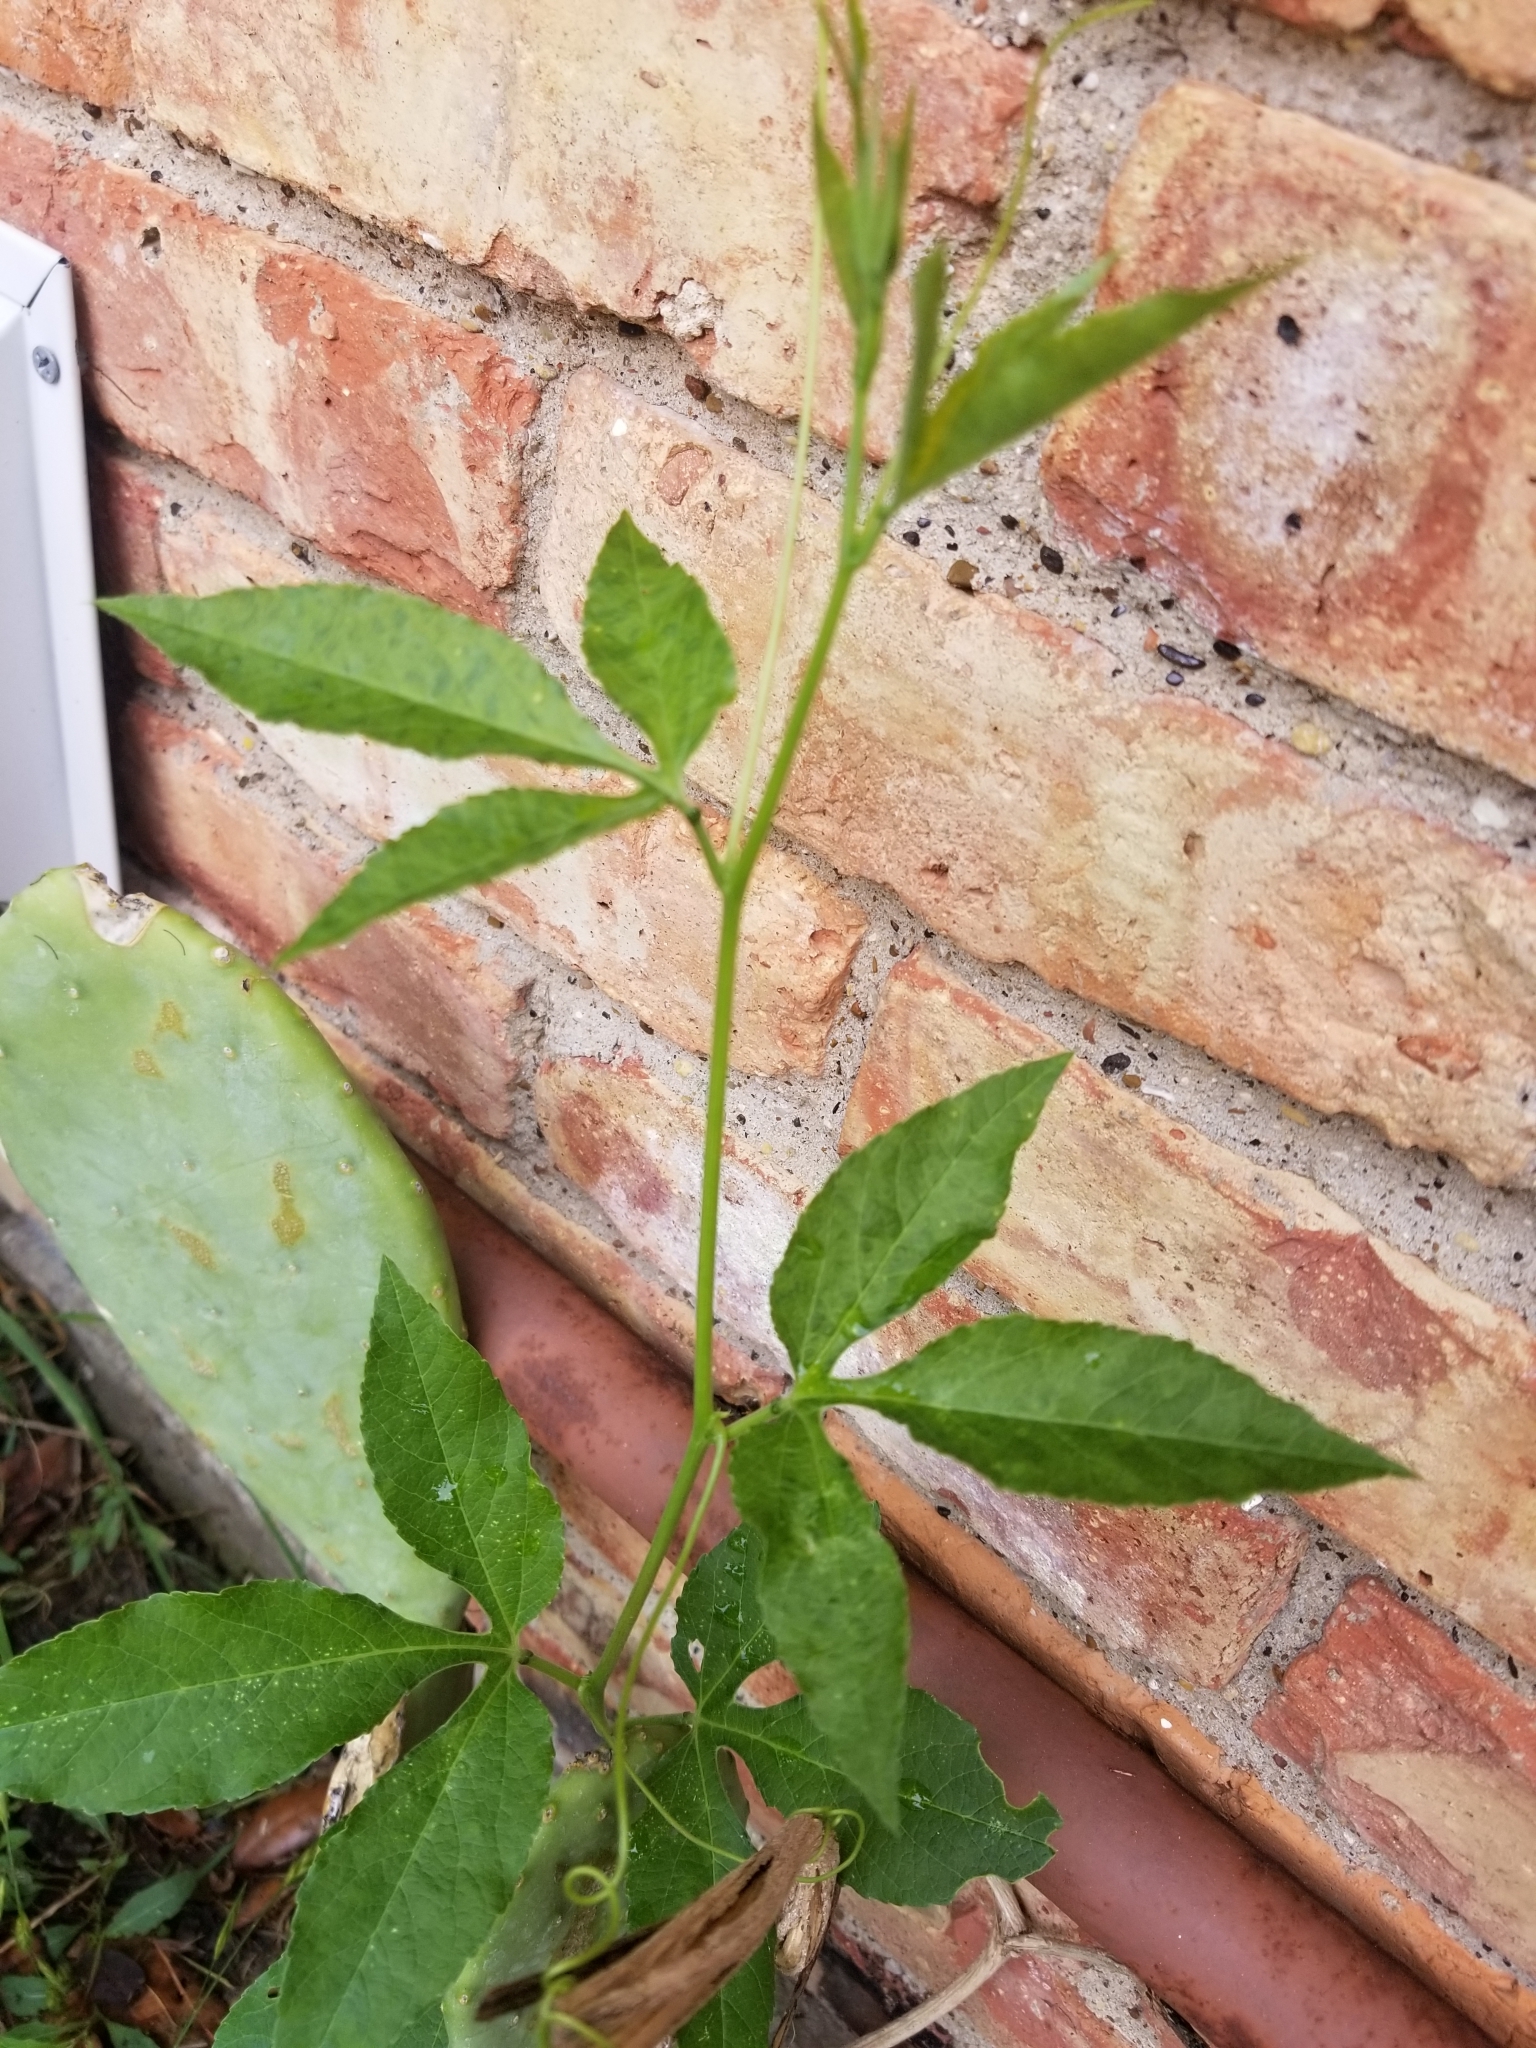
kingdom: Plantae
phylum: Tracheophyta
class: Magnoliopsida
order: Malpighiales
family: Passifloraceae
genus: Passiflora
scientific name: Passiflora incarnata
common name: Apricot-vine
